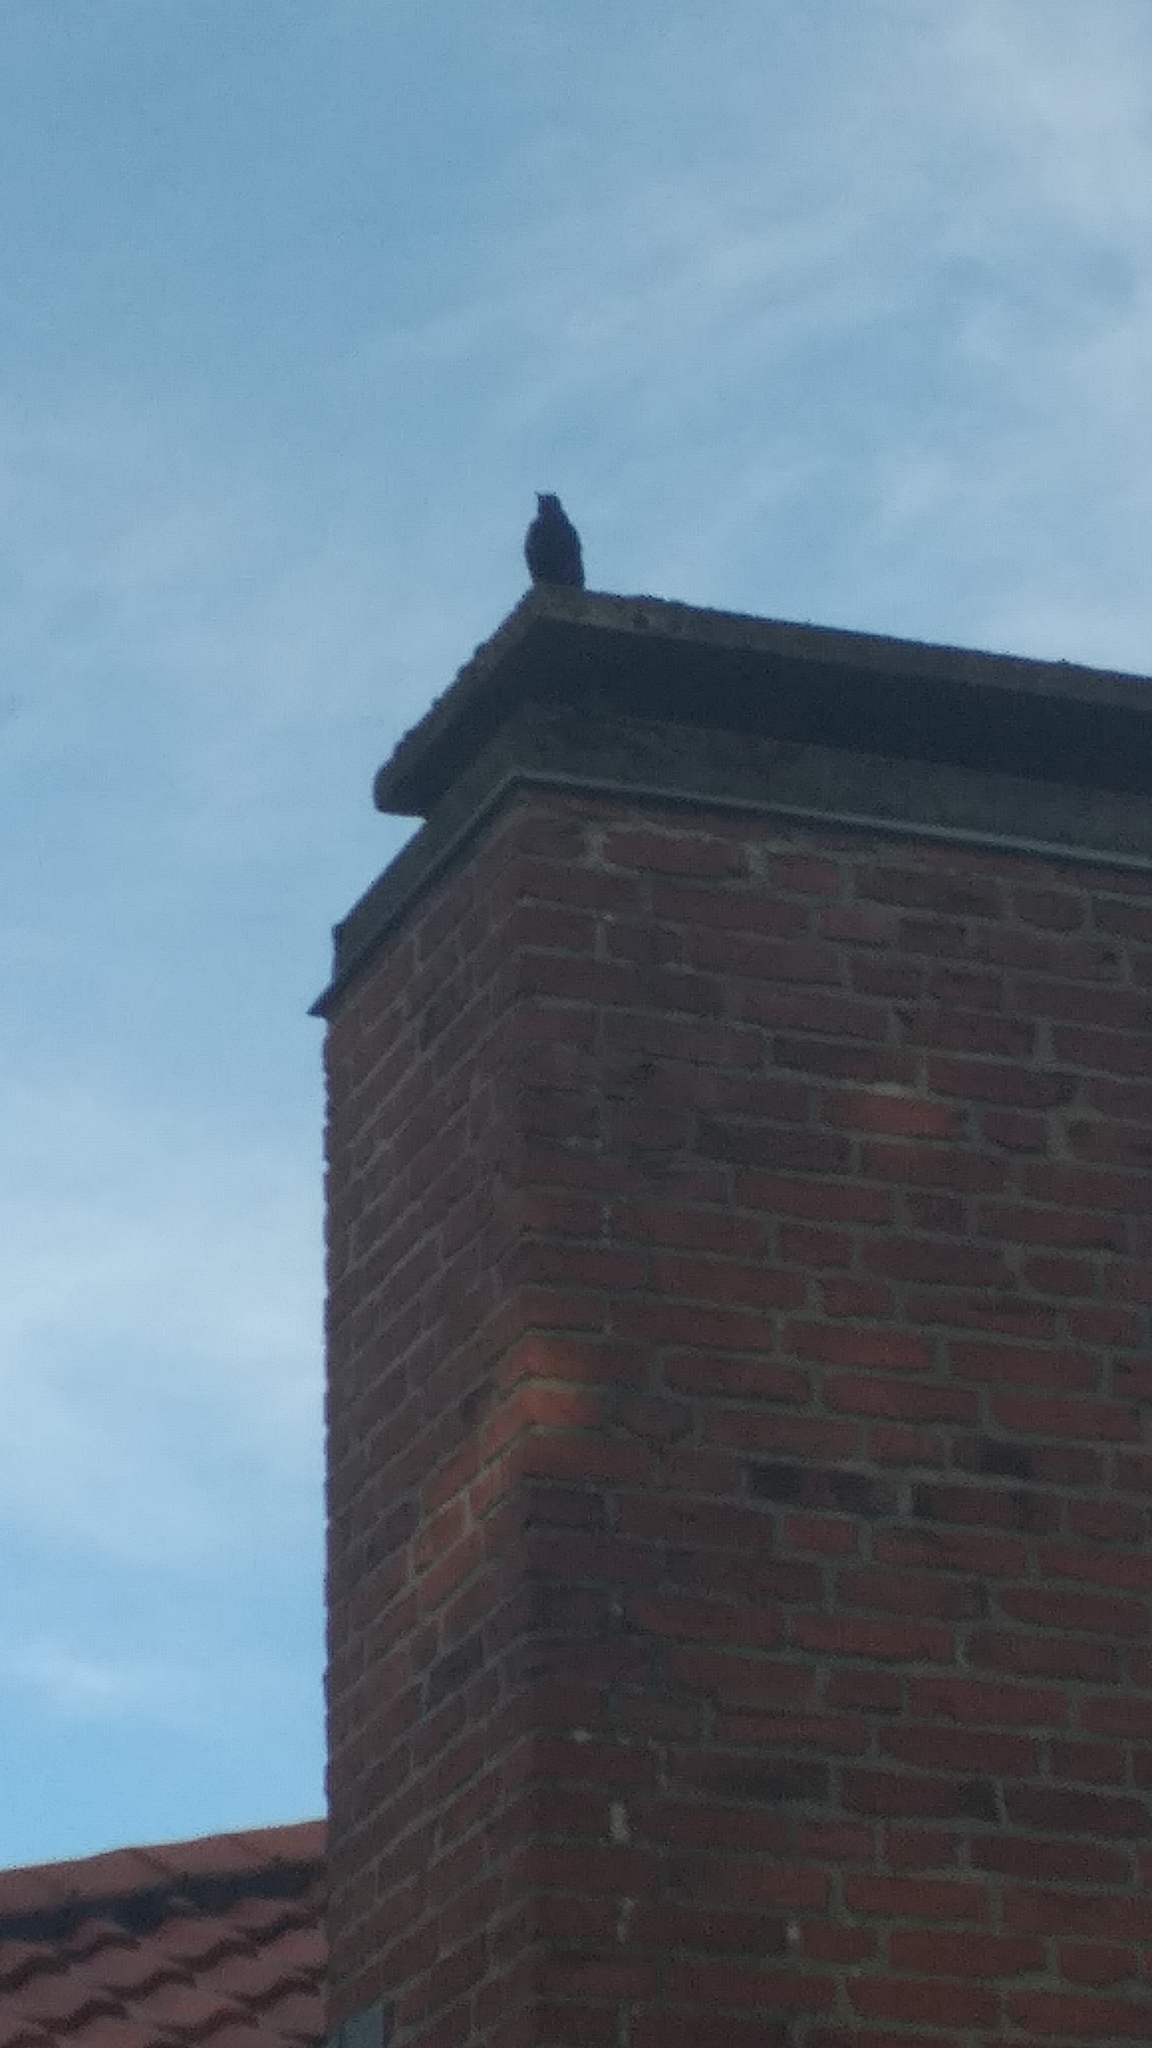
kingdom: Animalia
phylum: Chordata
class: Aves
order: Passeriformes
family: Turdidae
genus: Turdus
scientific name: Turdus merula
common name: Common blackbird
